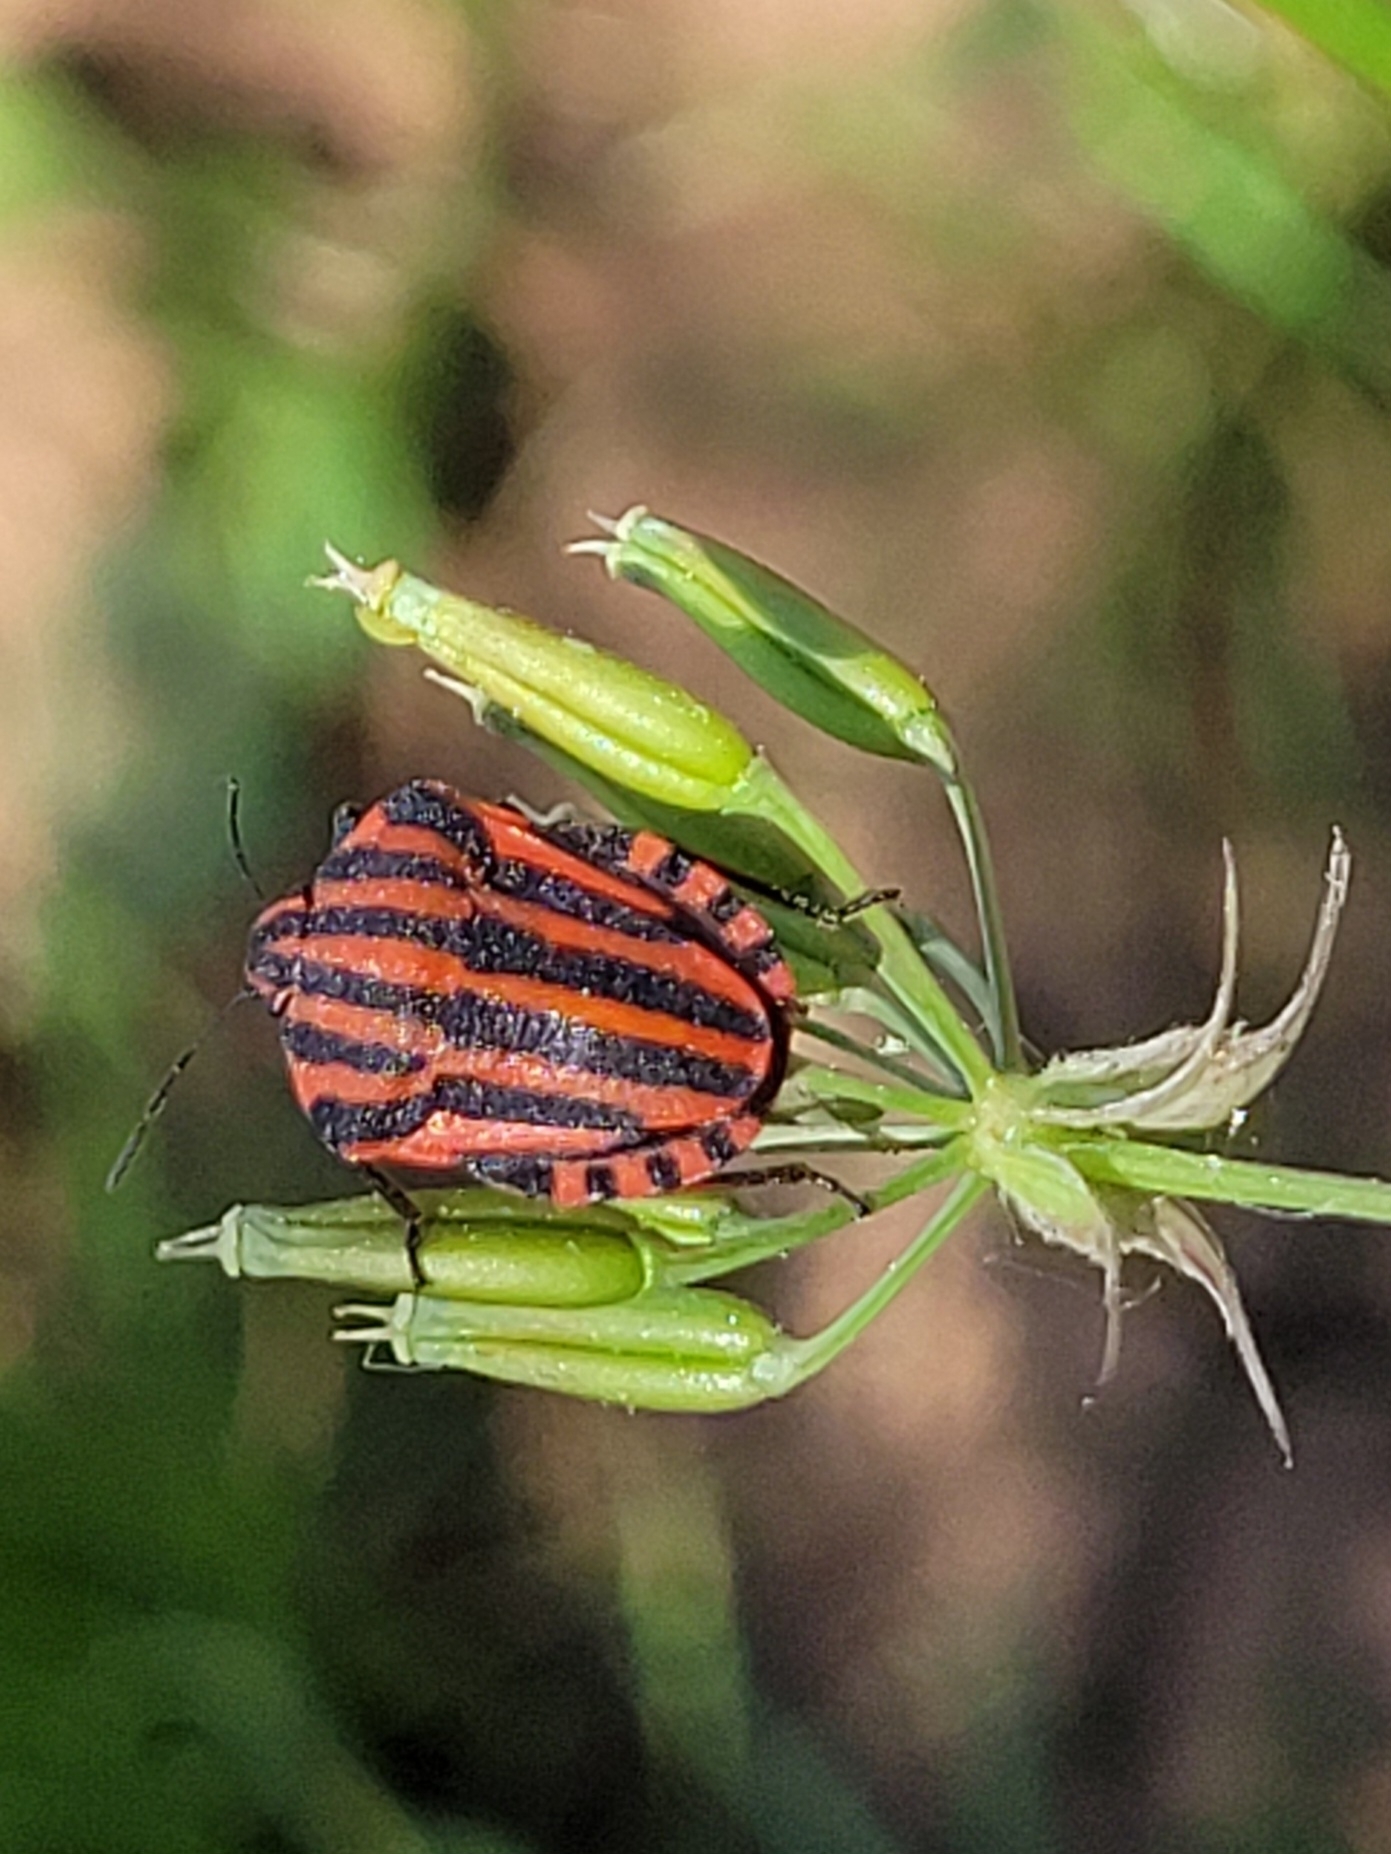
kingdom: Animalia
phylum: Arthropoda
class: Insecta
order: Hemiptera
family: Pentatomidae
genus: Graphosoma
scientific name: Graphosoma italicum
